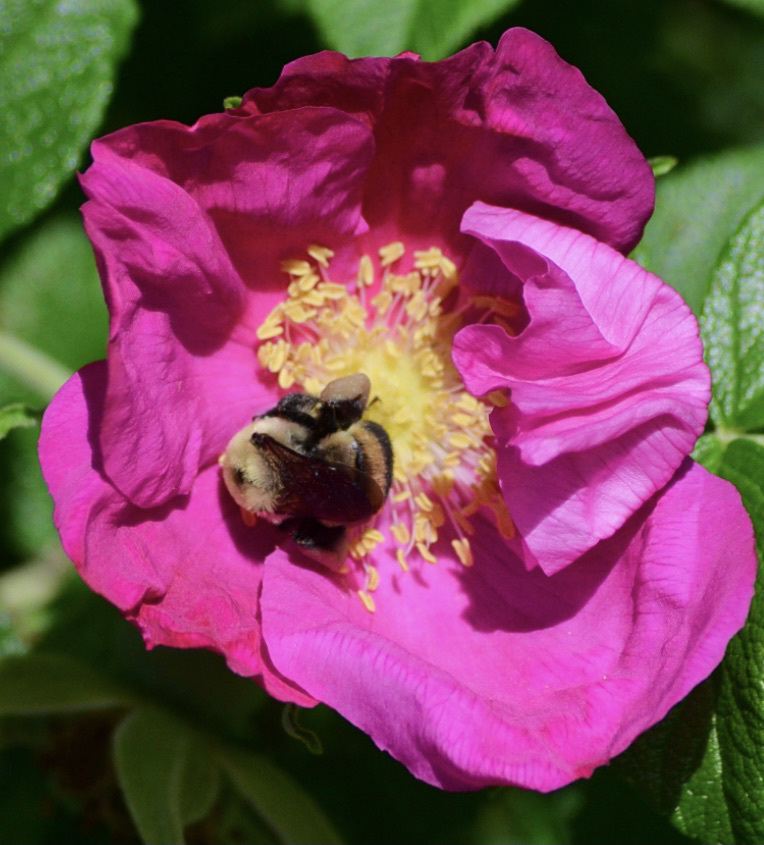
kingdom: Animalia
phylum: Arthropoda
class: Insecta
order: Hymenoptera
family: Apidae
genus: Bombus
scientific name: Bombus griseocollis
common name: Brown-belted bumble bee
